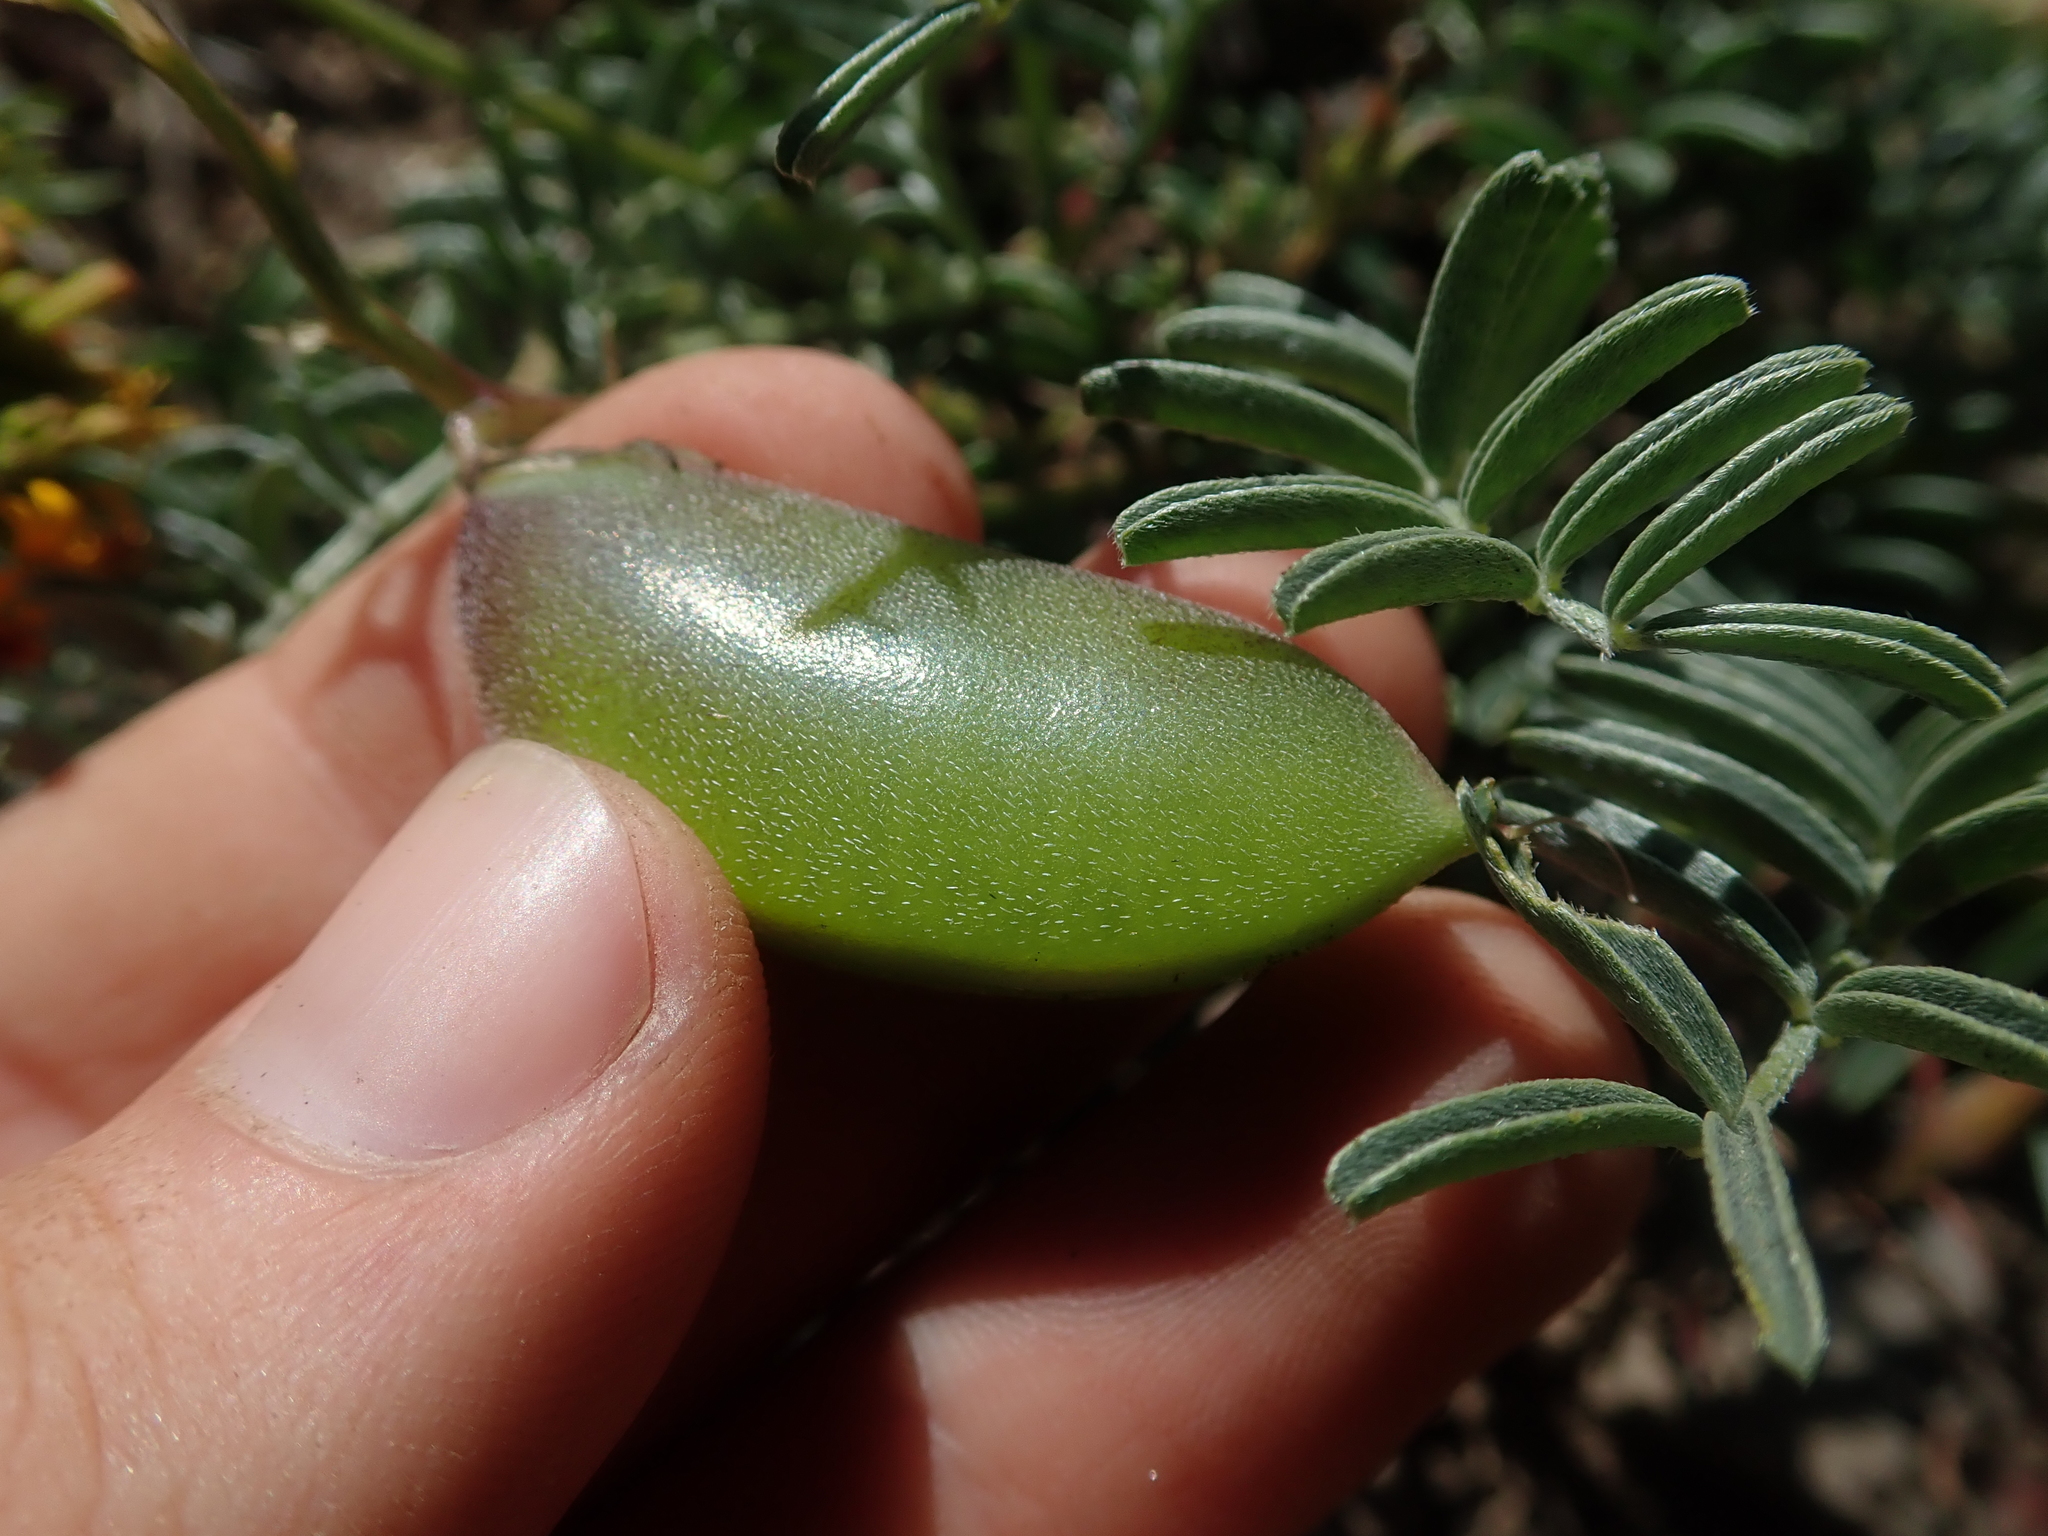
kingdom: Plantae
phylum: Tracheophyta
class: Magnoliopsida
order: Fabales
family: Fabaceae
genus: Astragalus
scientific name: Astragalus cruckshanksii
